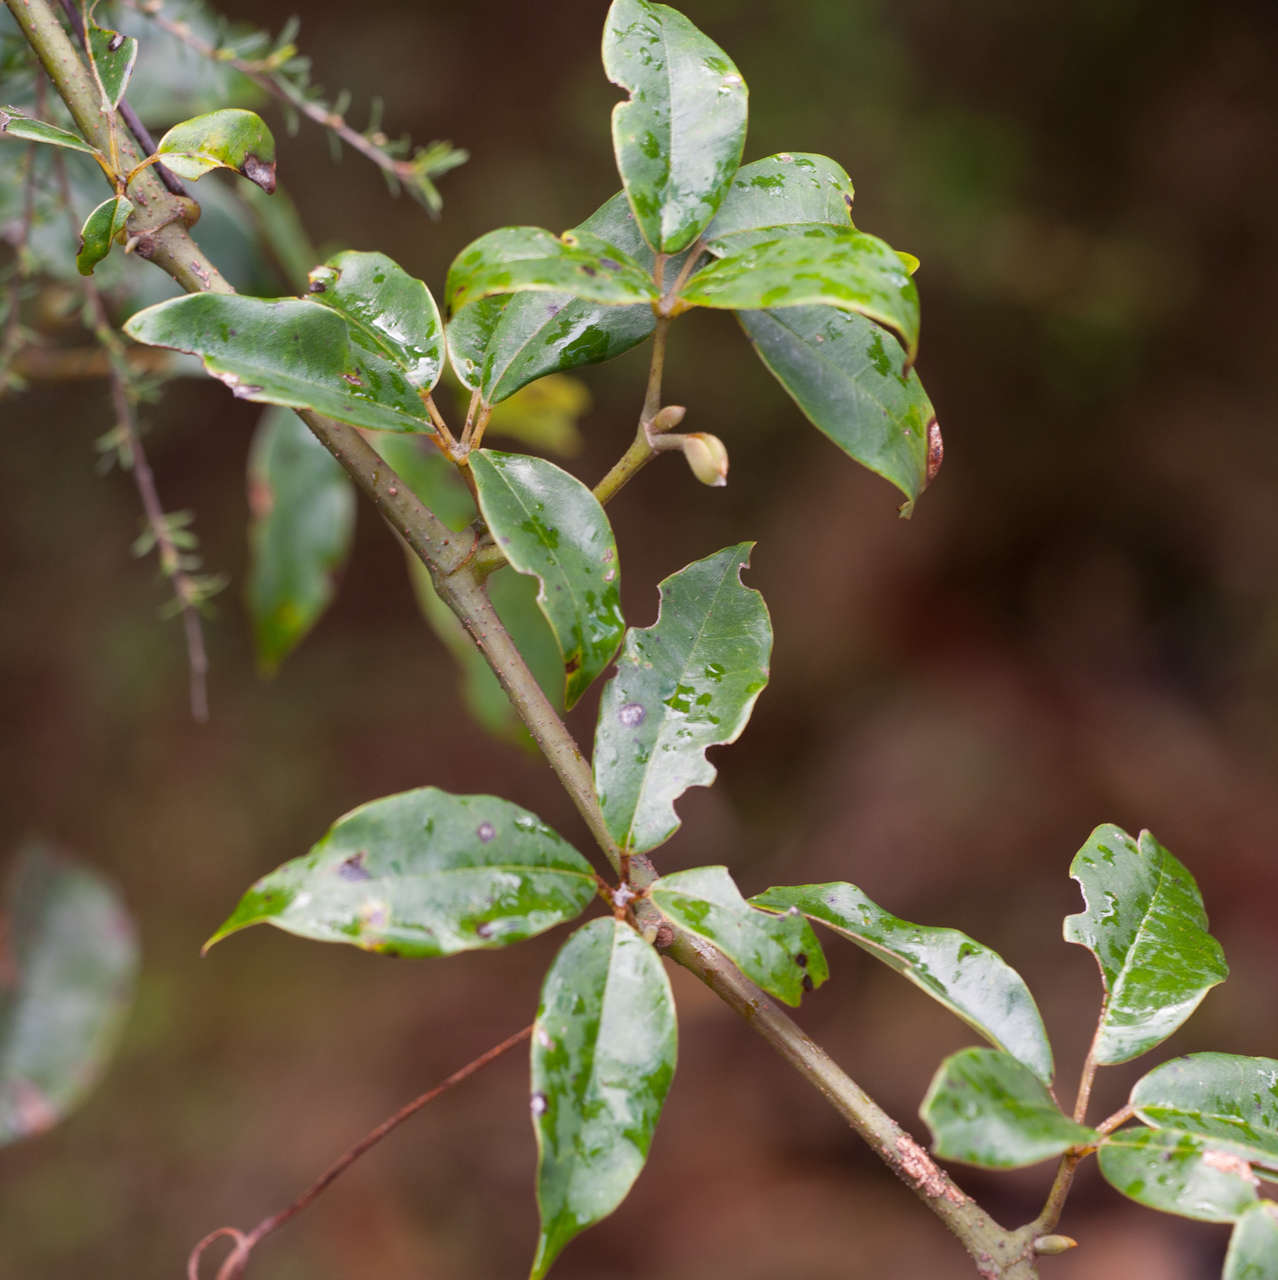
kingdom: Plantae
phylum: Tracheophyta
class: Magnoliopsida
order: Vitales
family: Vitaceae
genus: Nothocissus
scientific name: Nothocissus hypoglauca
